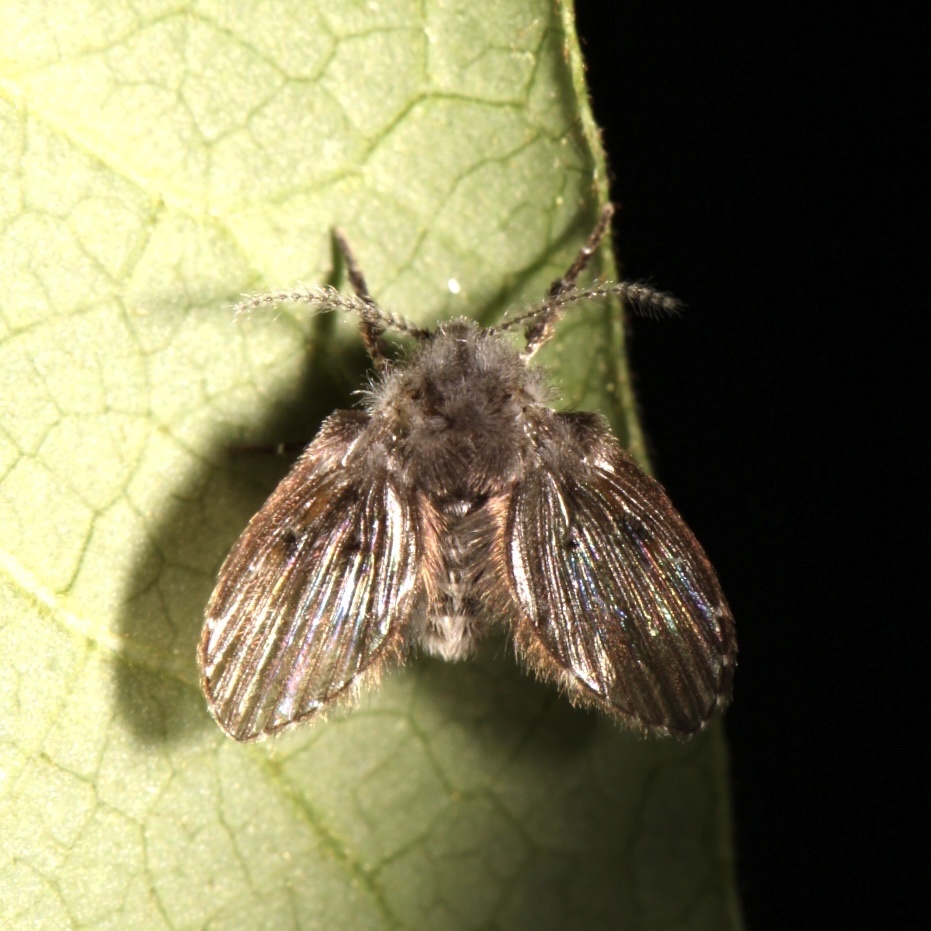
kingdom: Animalia
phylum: Arthropoda
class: Insecta
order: Diptera
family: Psychodidae
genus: Clogmia
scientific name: Clogmia albipunctatus
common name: White-spotted moth fly
